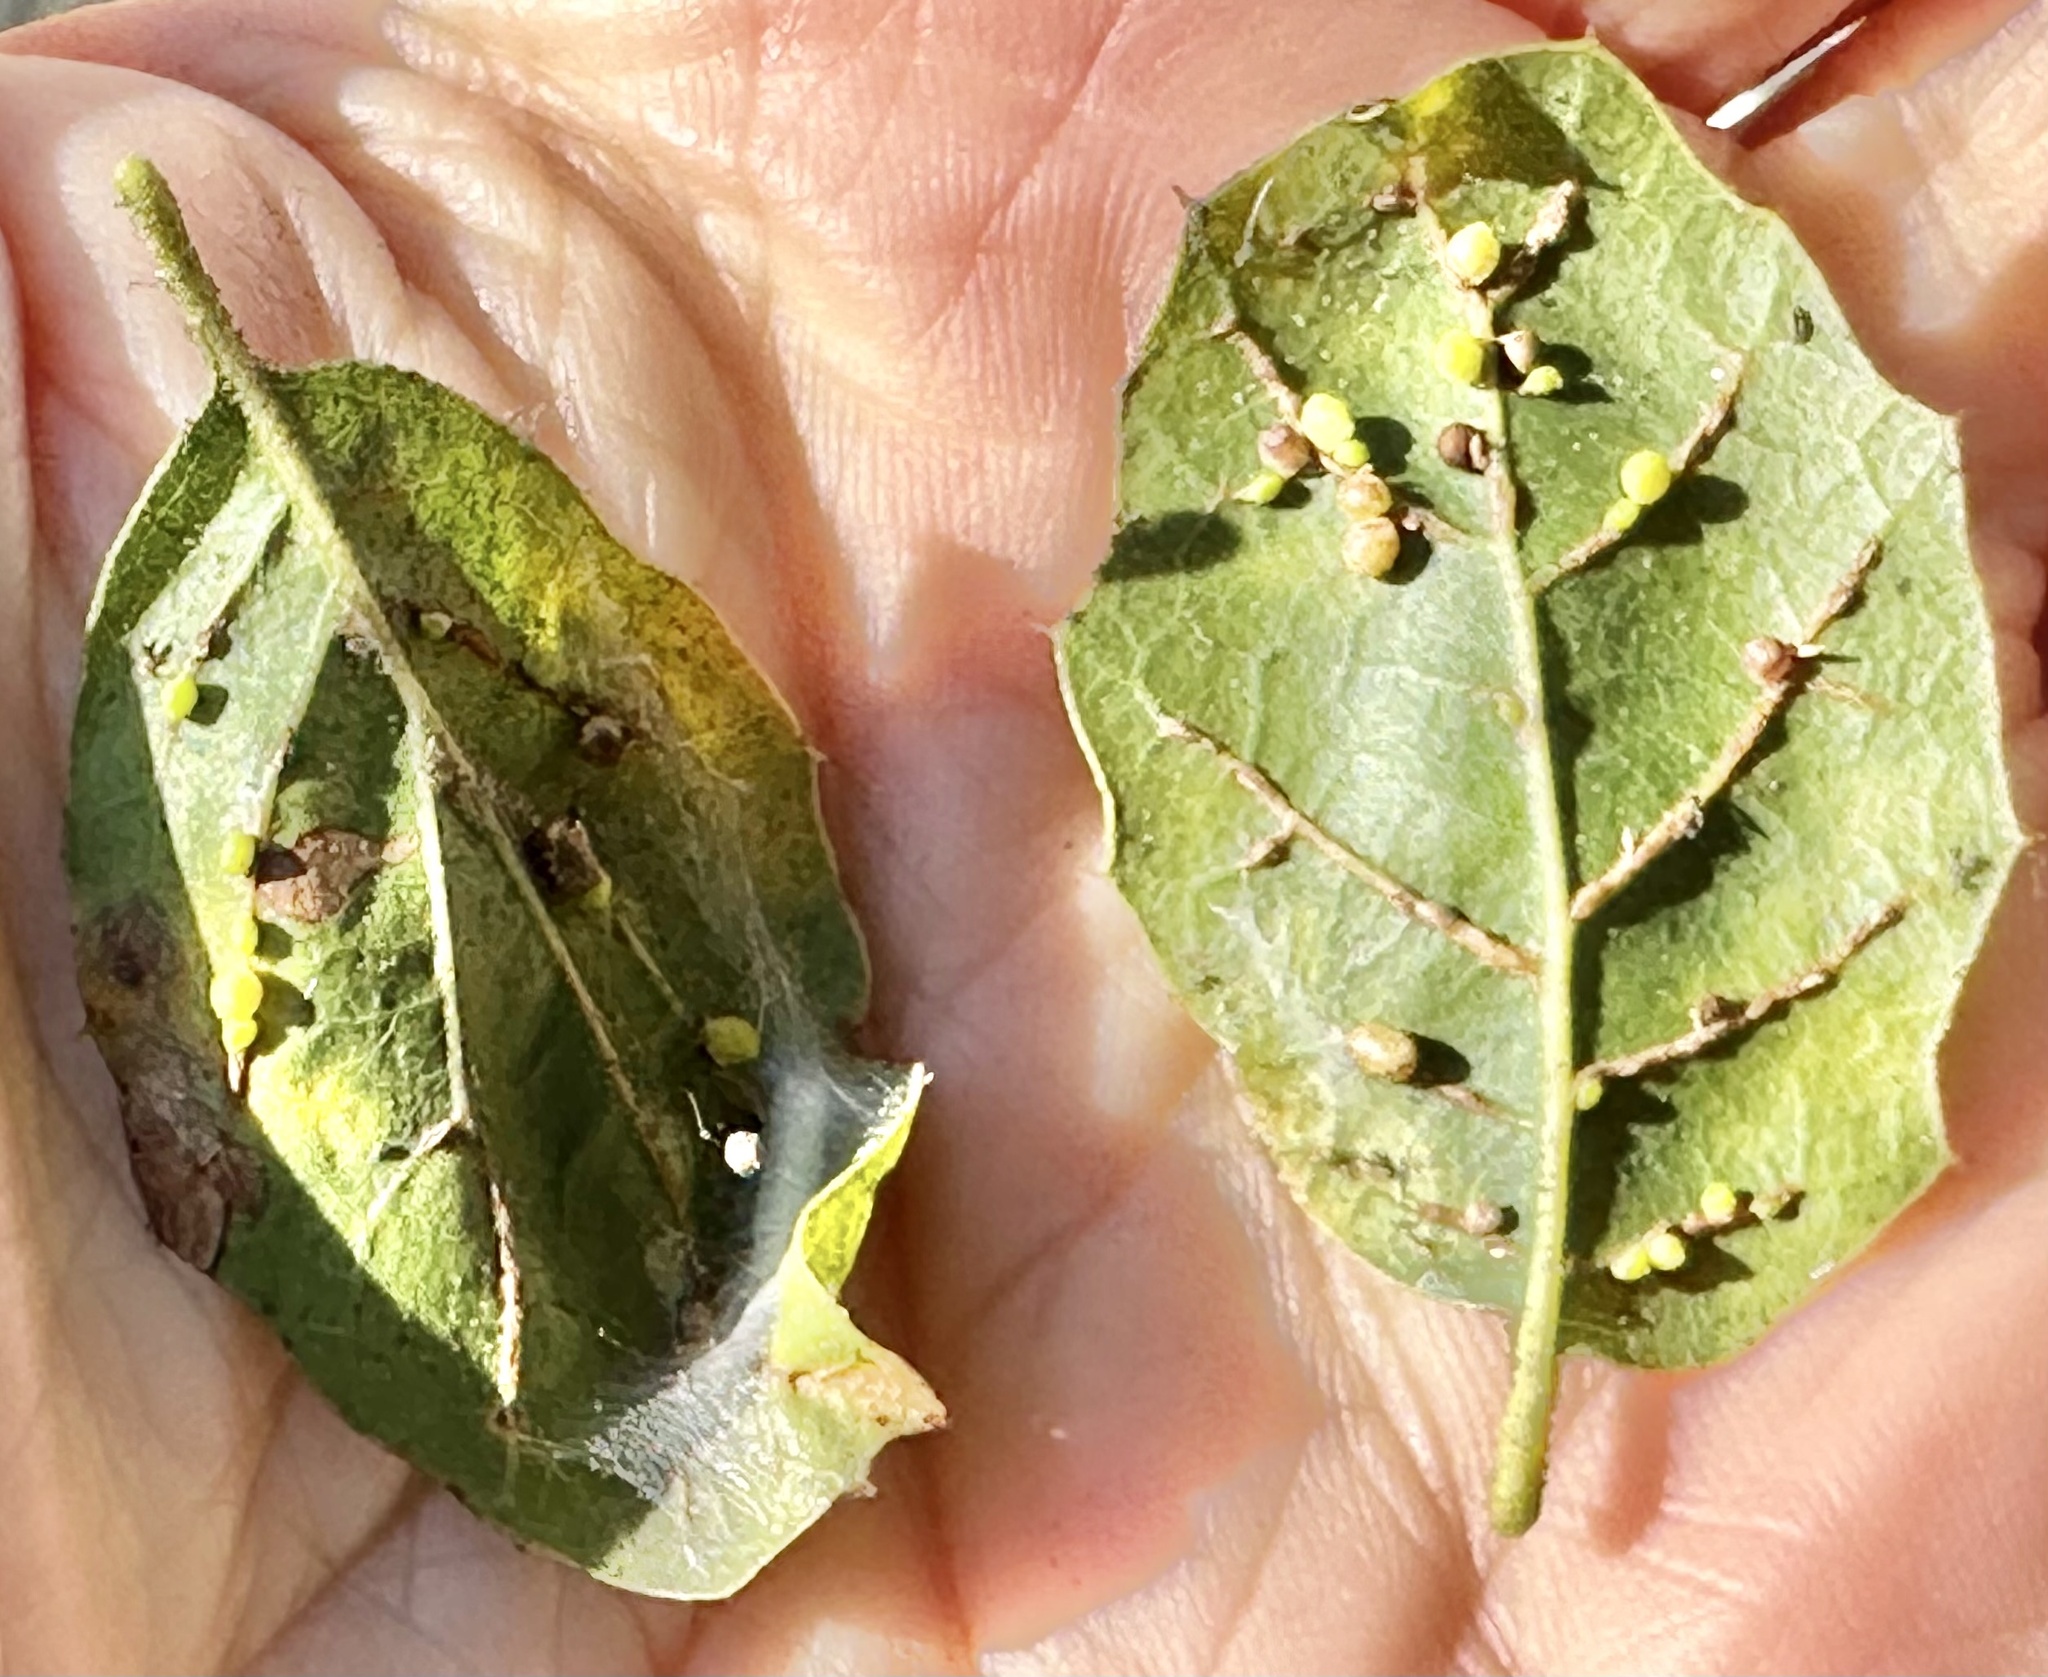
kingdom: Animalia
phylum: Arthropoda
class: Insecta
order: Hymenoptera
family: Cynipidae
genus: Dryocosmus
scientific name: Dryocosmus
